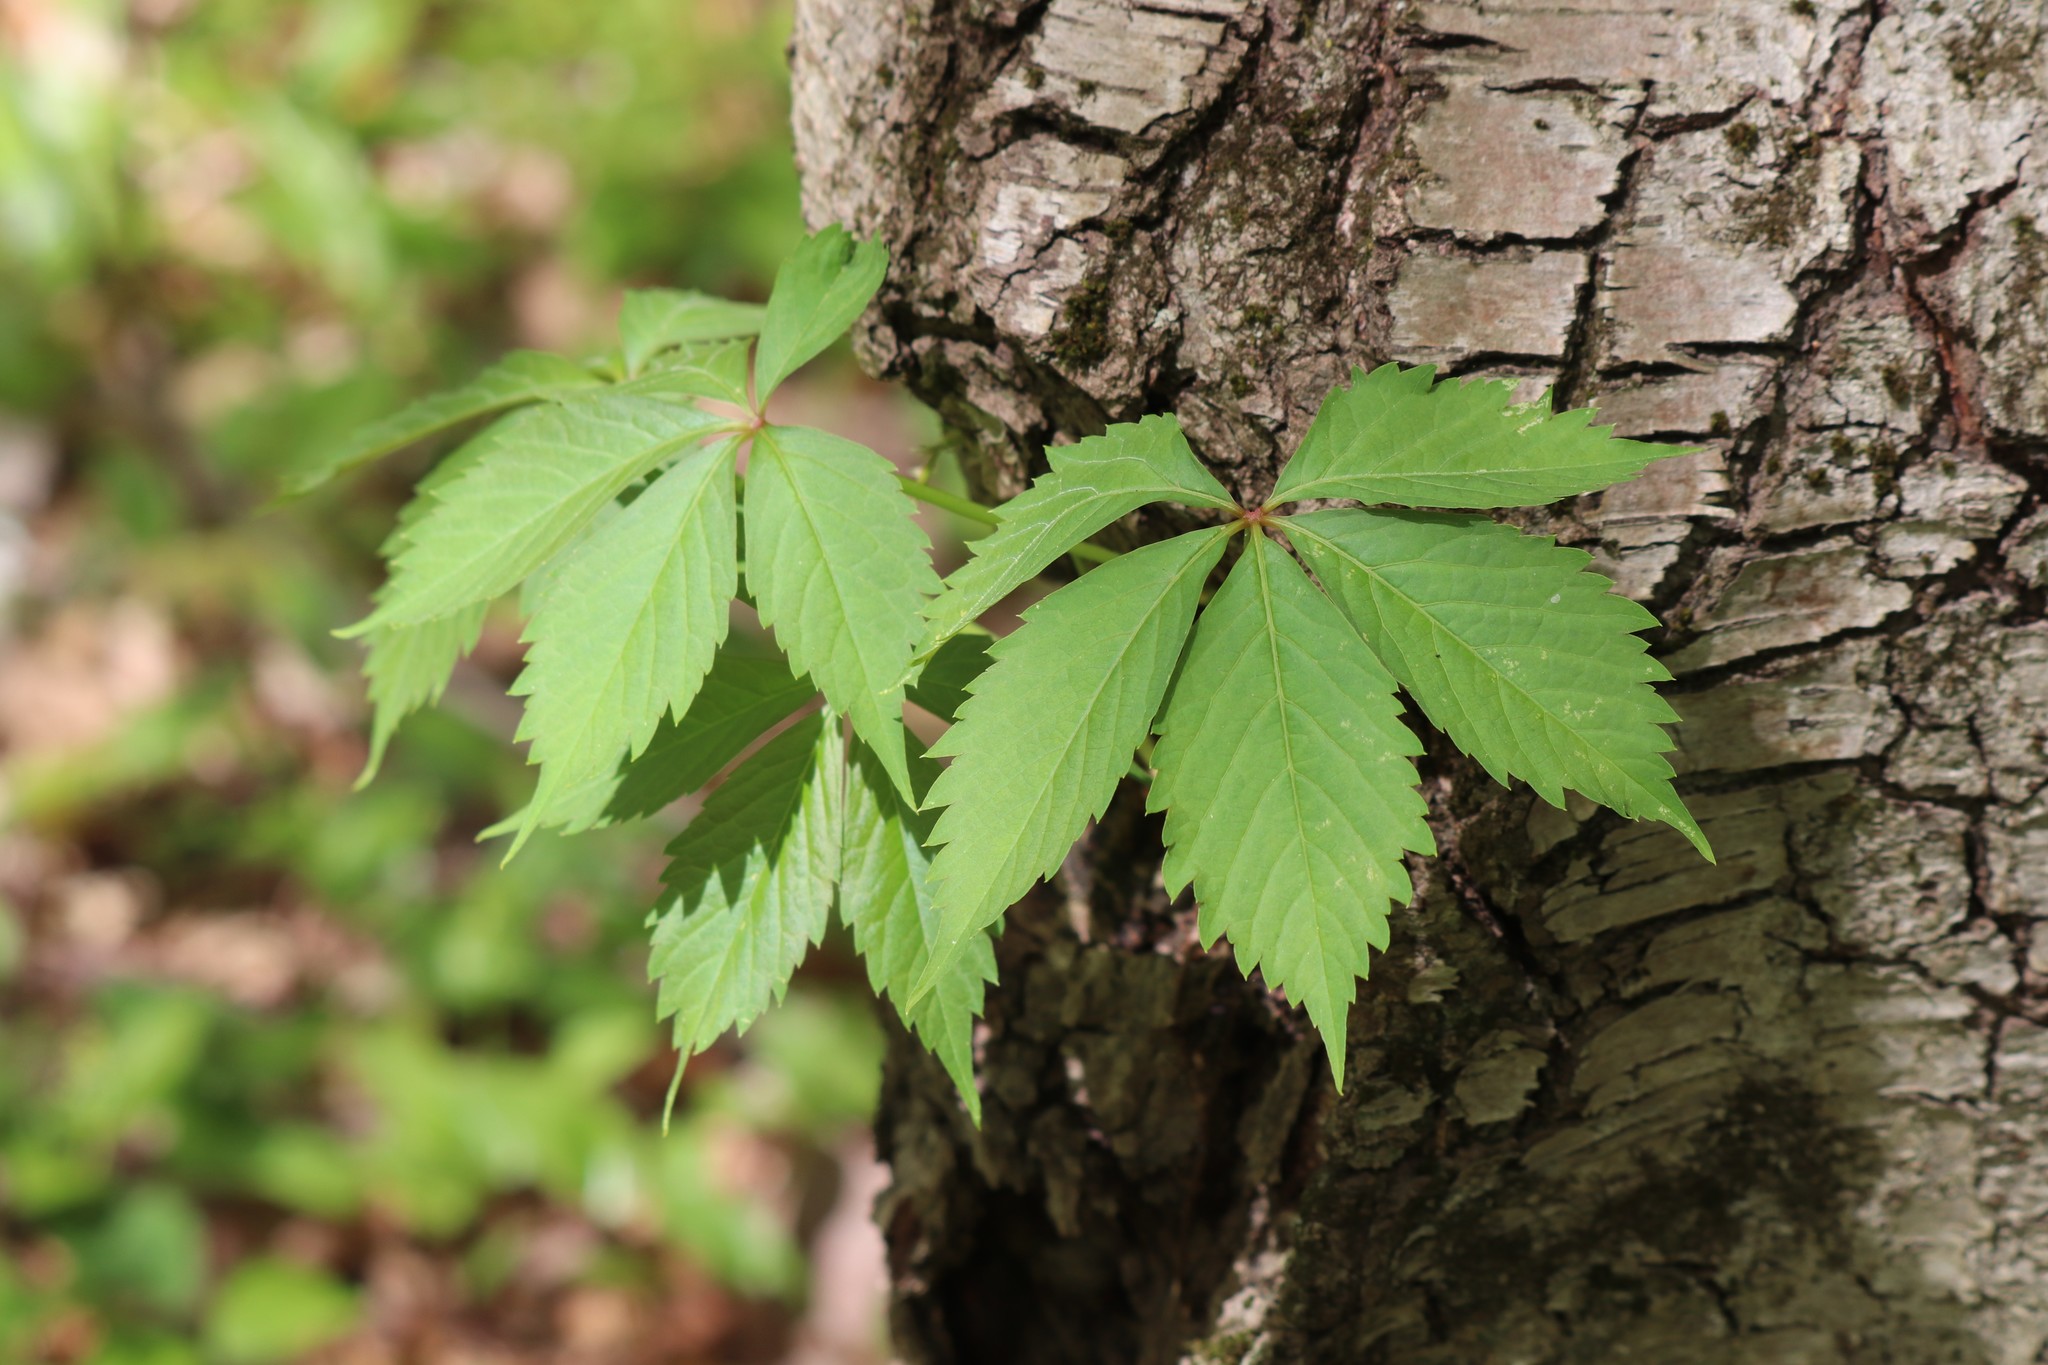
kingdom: Plantae
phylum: Tracheophyta
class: Magnoliopsida
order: Vitales
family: Vitaceae
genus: Parthenocissus
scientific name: Parthenocissus quinquefolia
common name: Virginia-creeper
